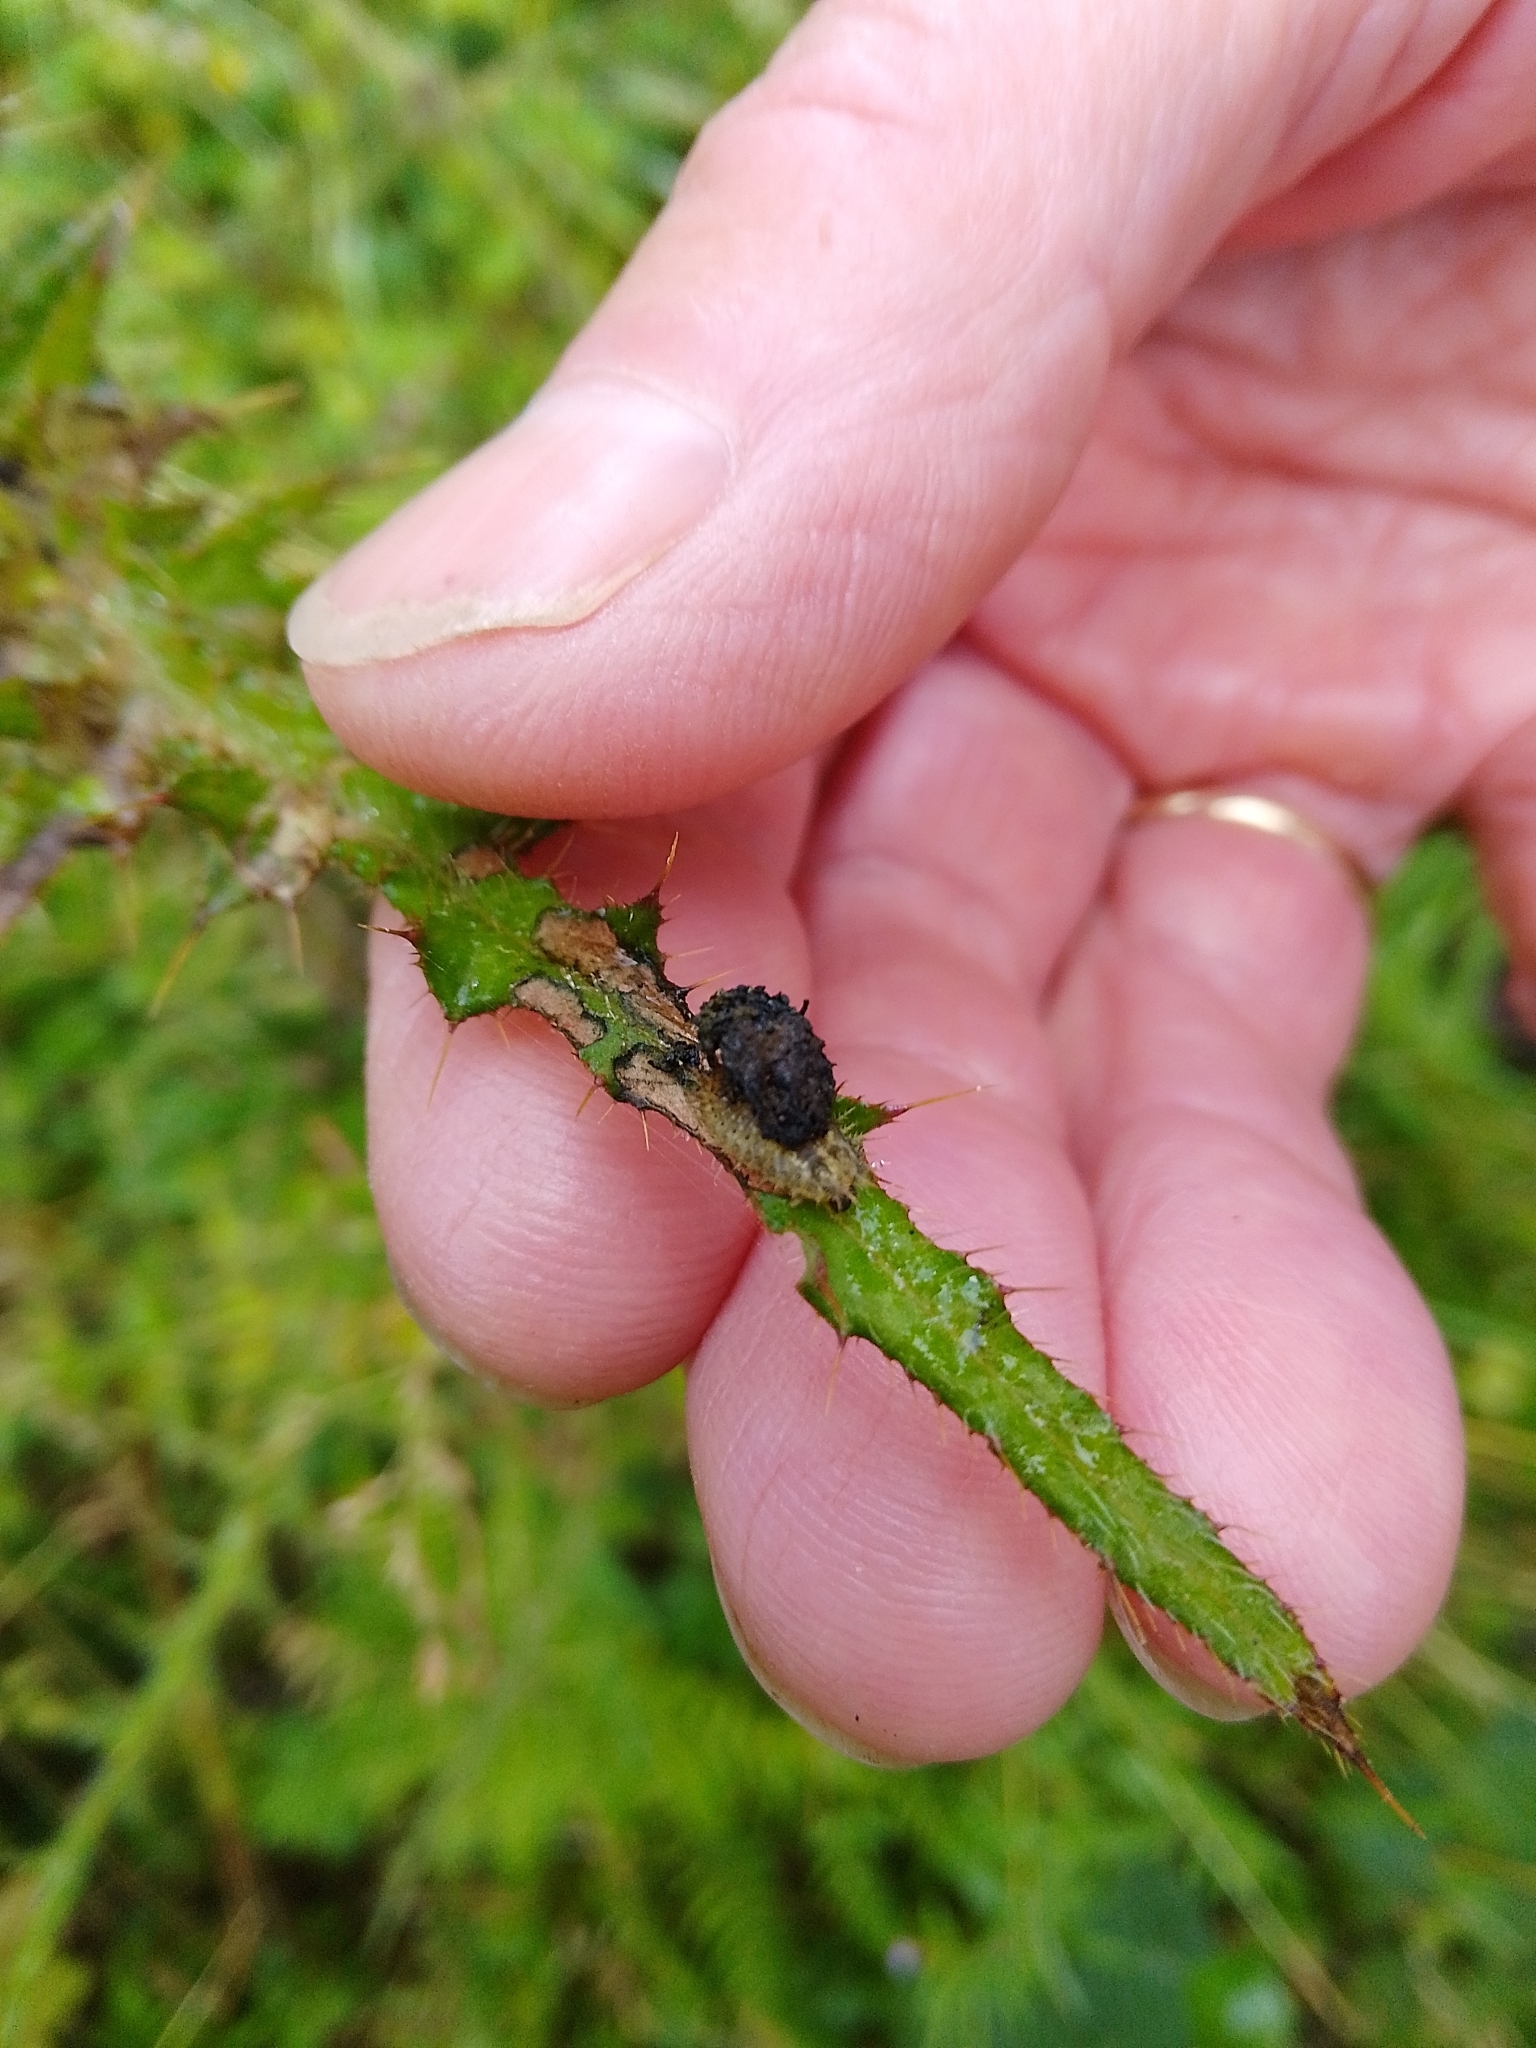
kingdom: Animalia
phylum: Arthropoda
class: Insecta
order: Coleoptera
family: Chrysomelidae
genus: Cassida
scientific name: Cassida rubiginosa
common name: Thistle tortoise beetle
